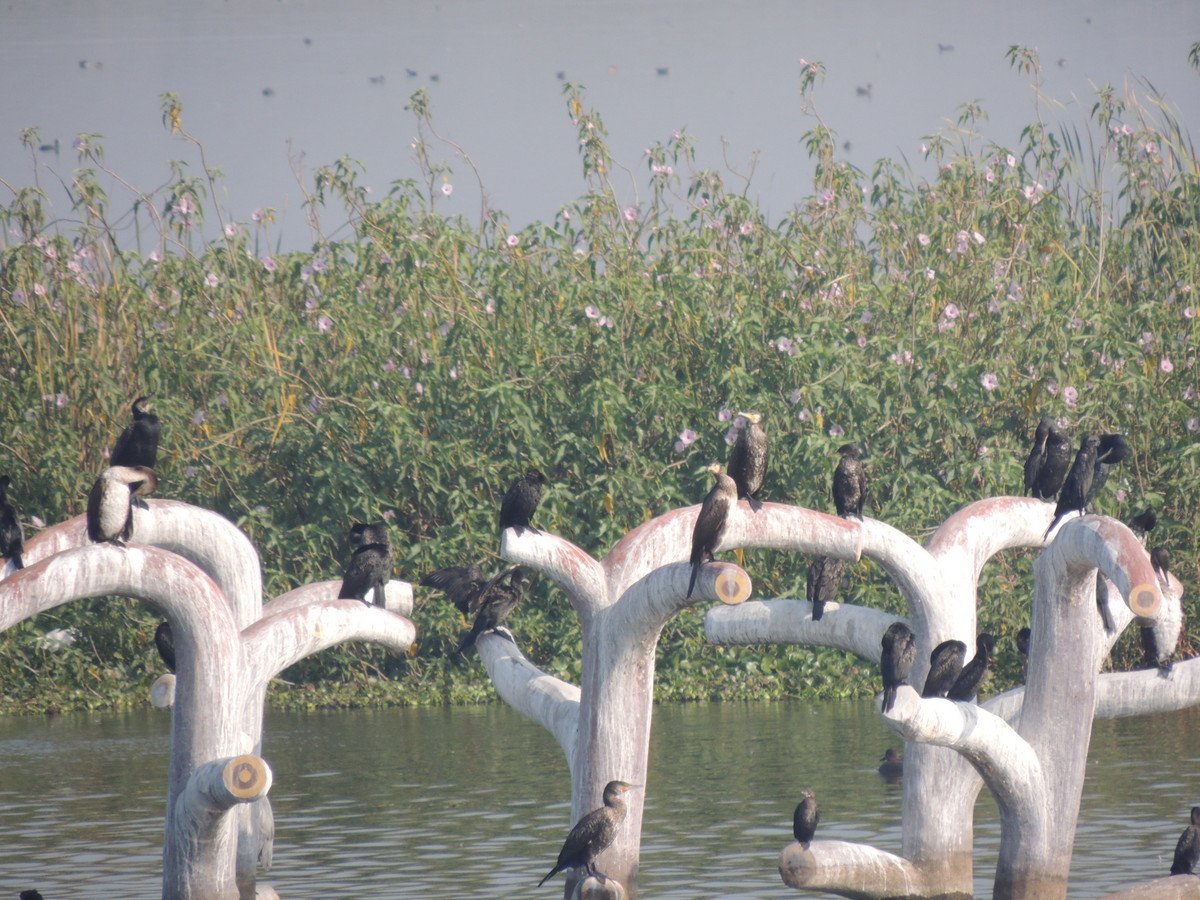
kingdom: Animalia
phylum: Chordata
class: Aves
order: Suliformes
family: Phalacrocoracidae
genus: Phalacrocorax
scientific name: Phalacrocorax fuscicollis
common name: Indian cormorant
